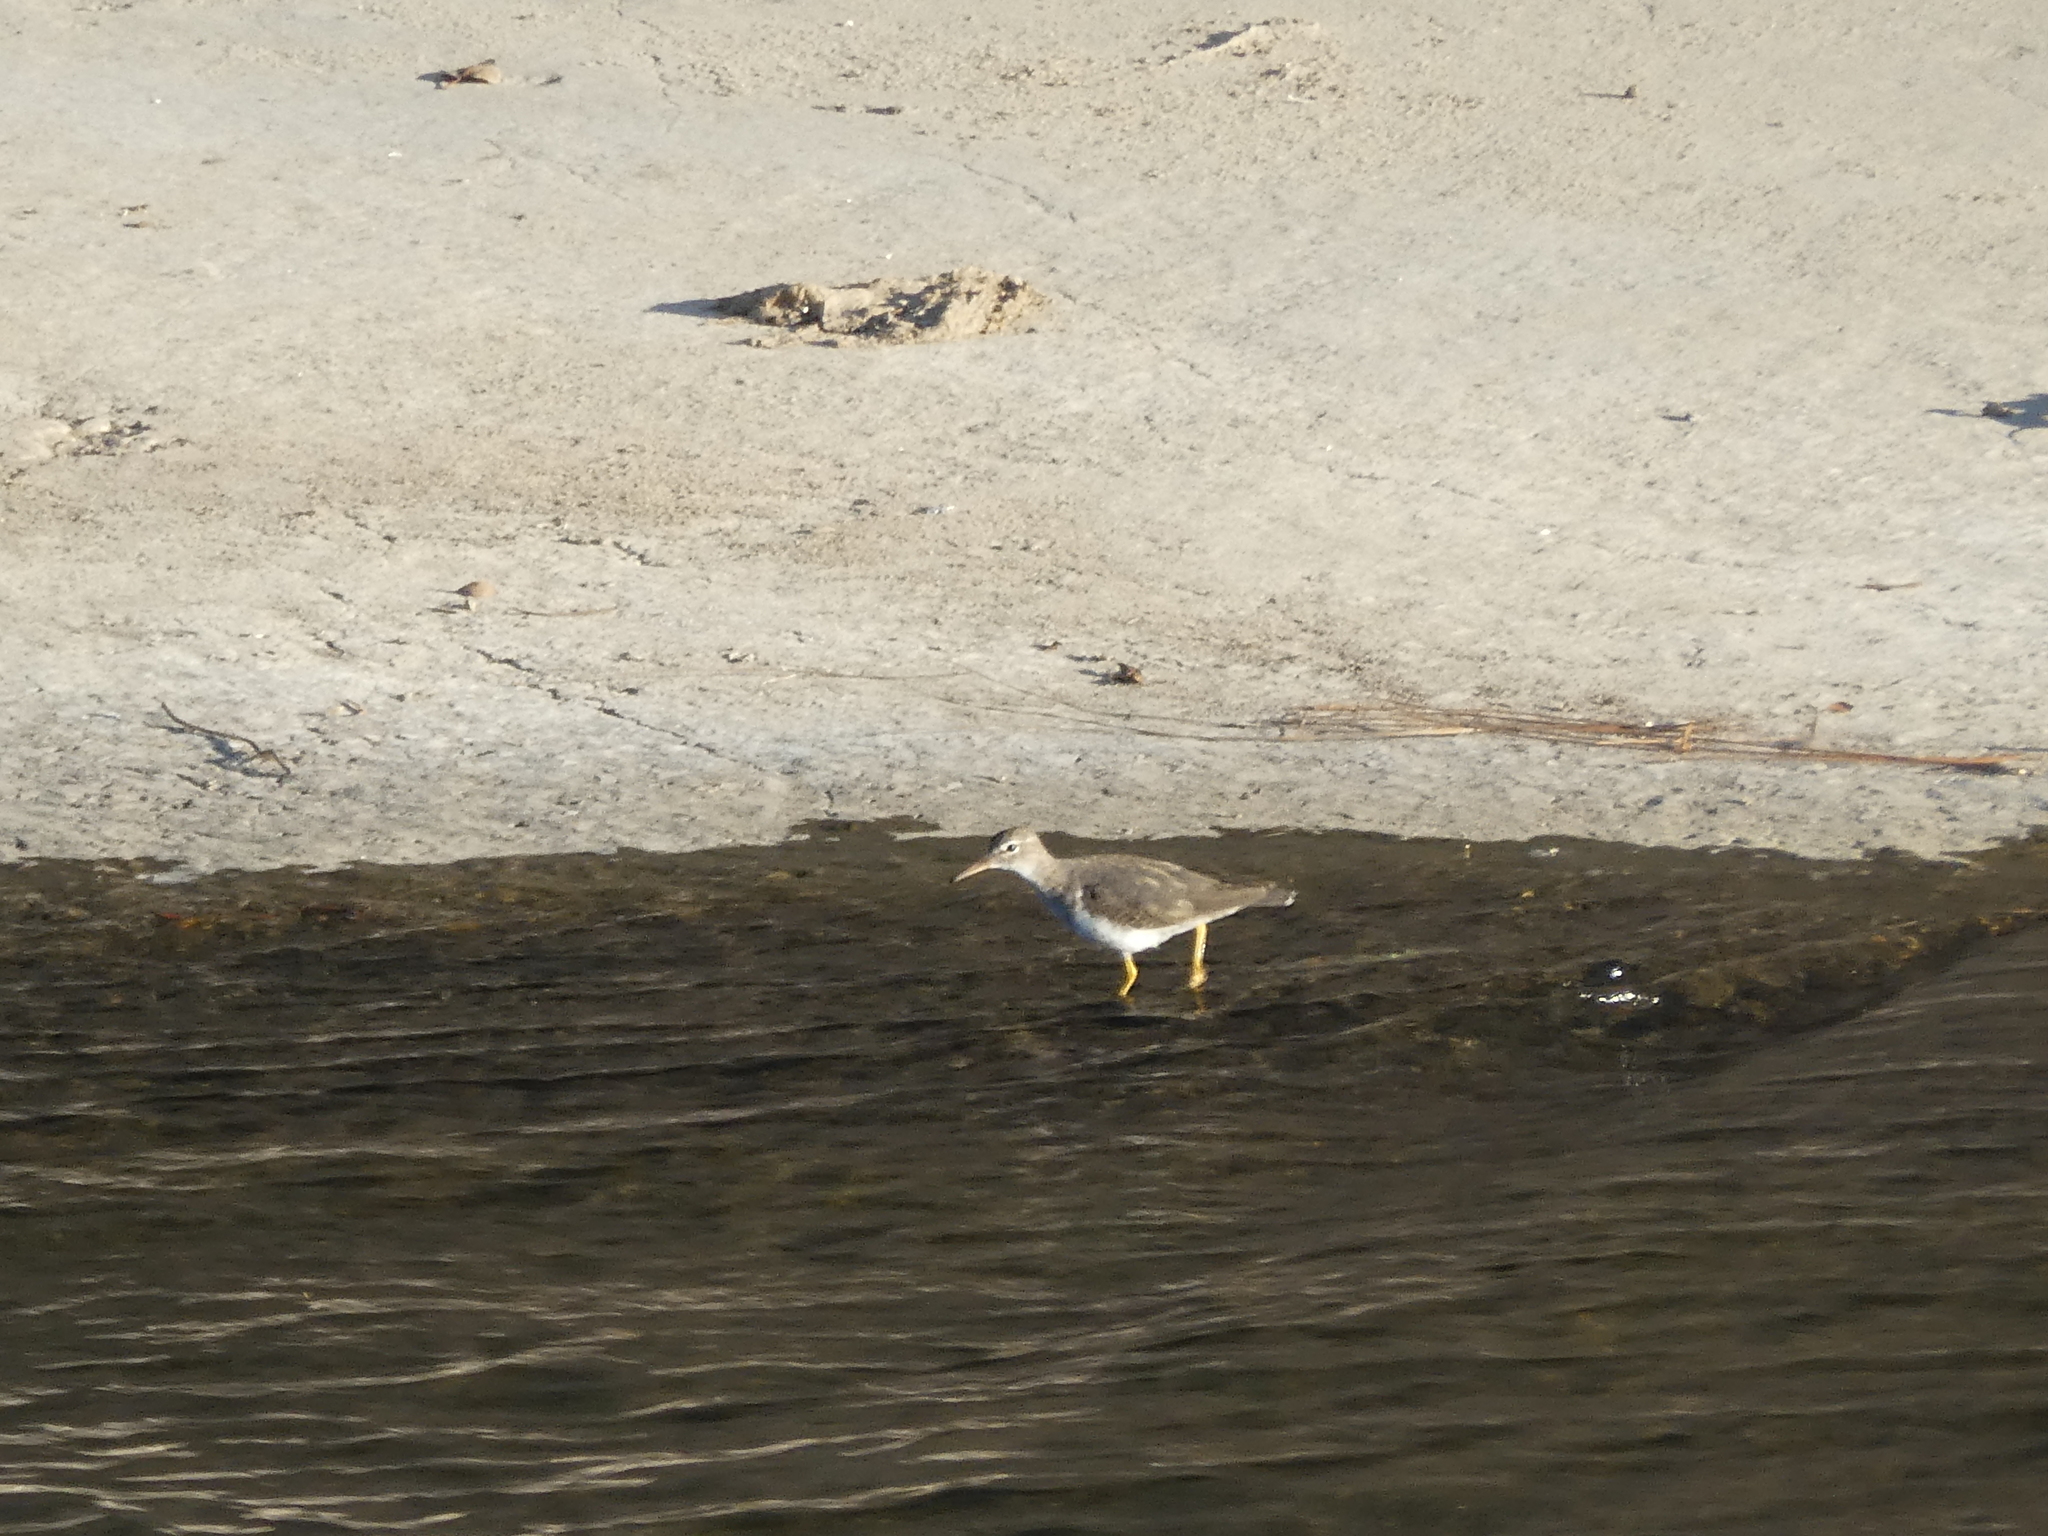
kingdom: Animalia
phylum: Chordata
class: Aves
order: Charadriiformes
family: Scolopacidae
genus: Actitis
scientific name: Actitis macularius
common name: Spotted sandpiper
